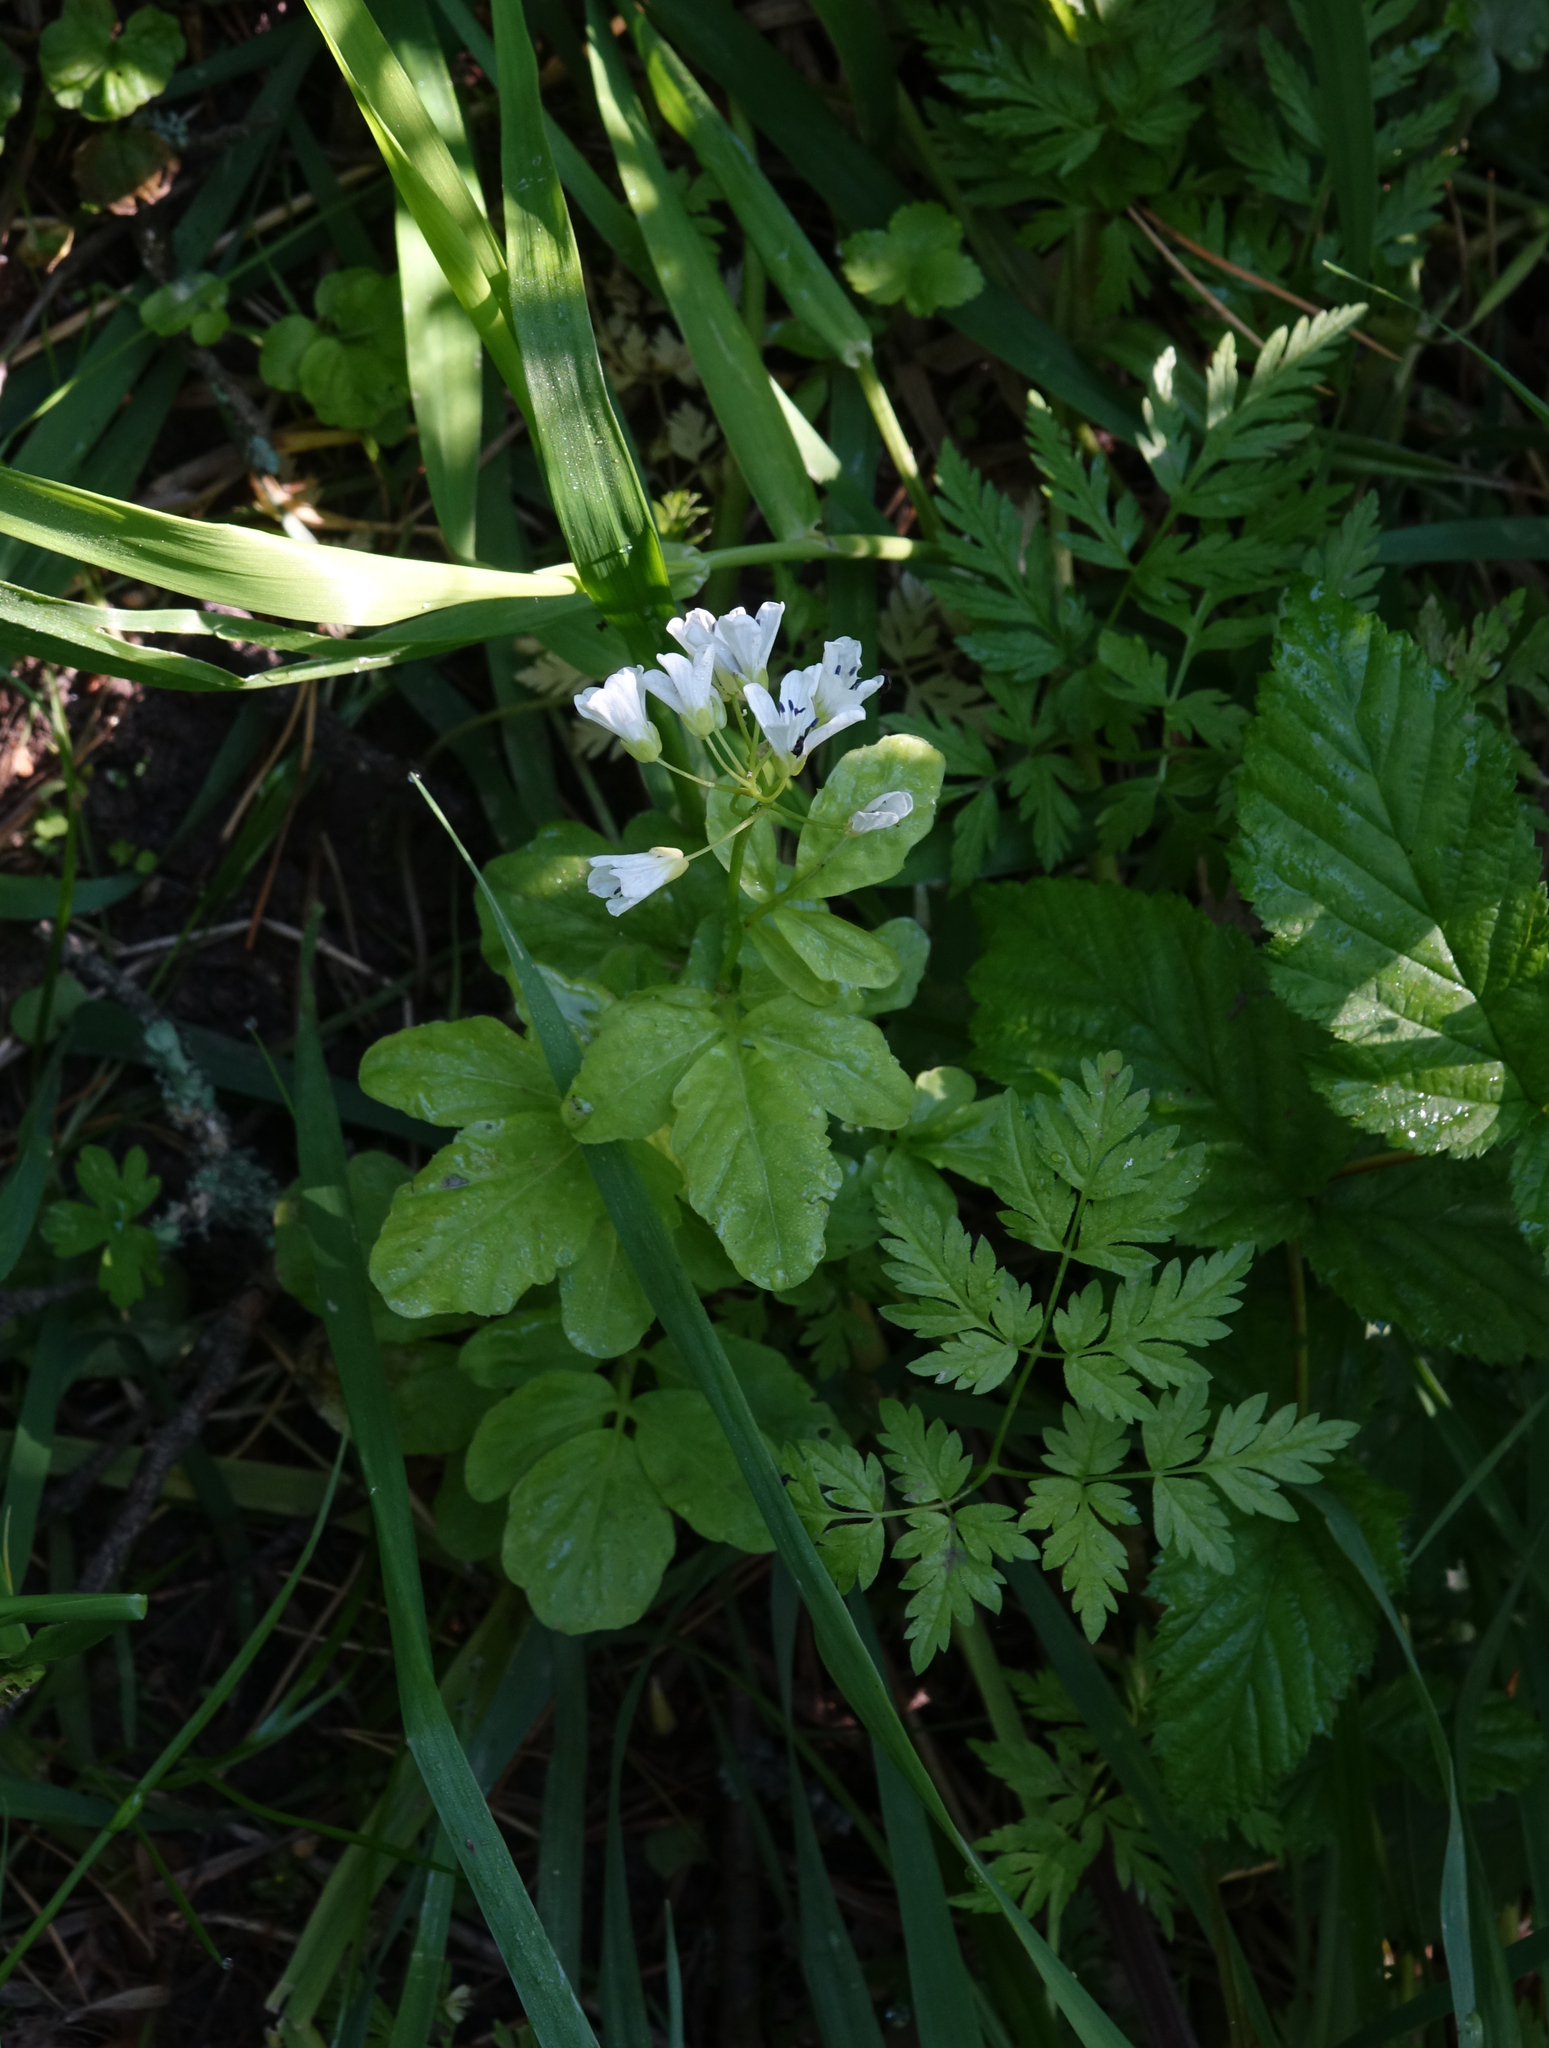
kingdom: Plantae
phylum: Tracheophyta
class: Magnoliopsida
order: Brassicales
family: Brassicaceae
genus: Cardamine
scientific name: Cardamine amara
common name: Large bitter-cress
